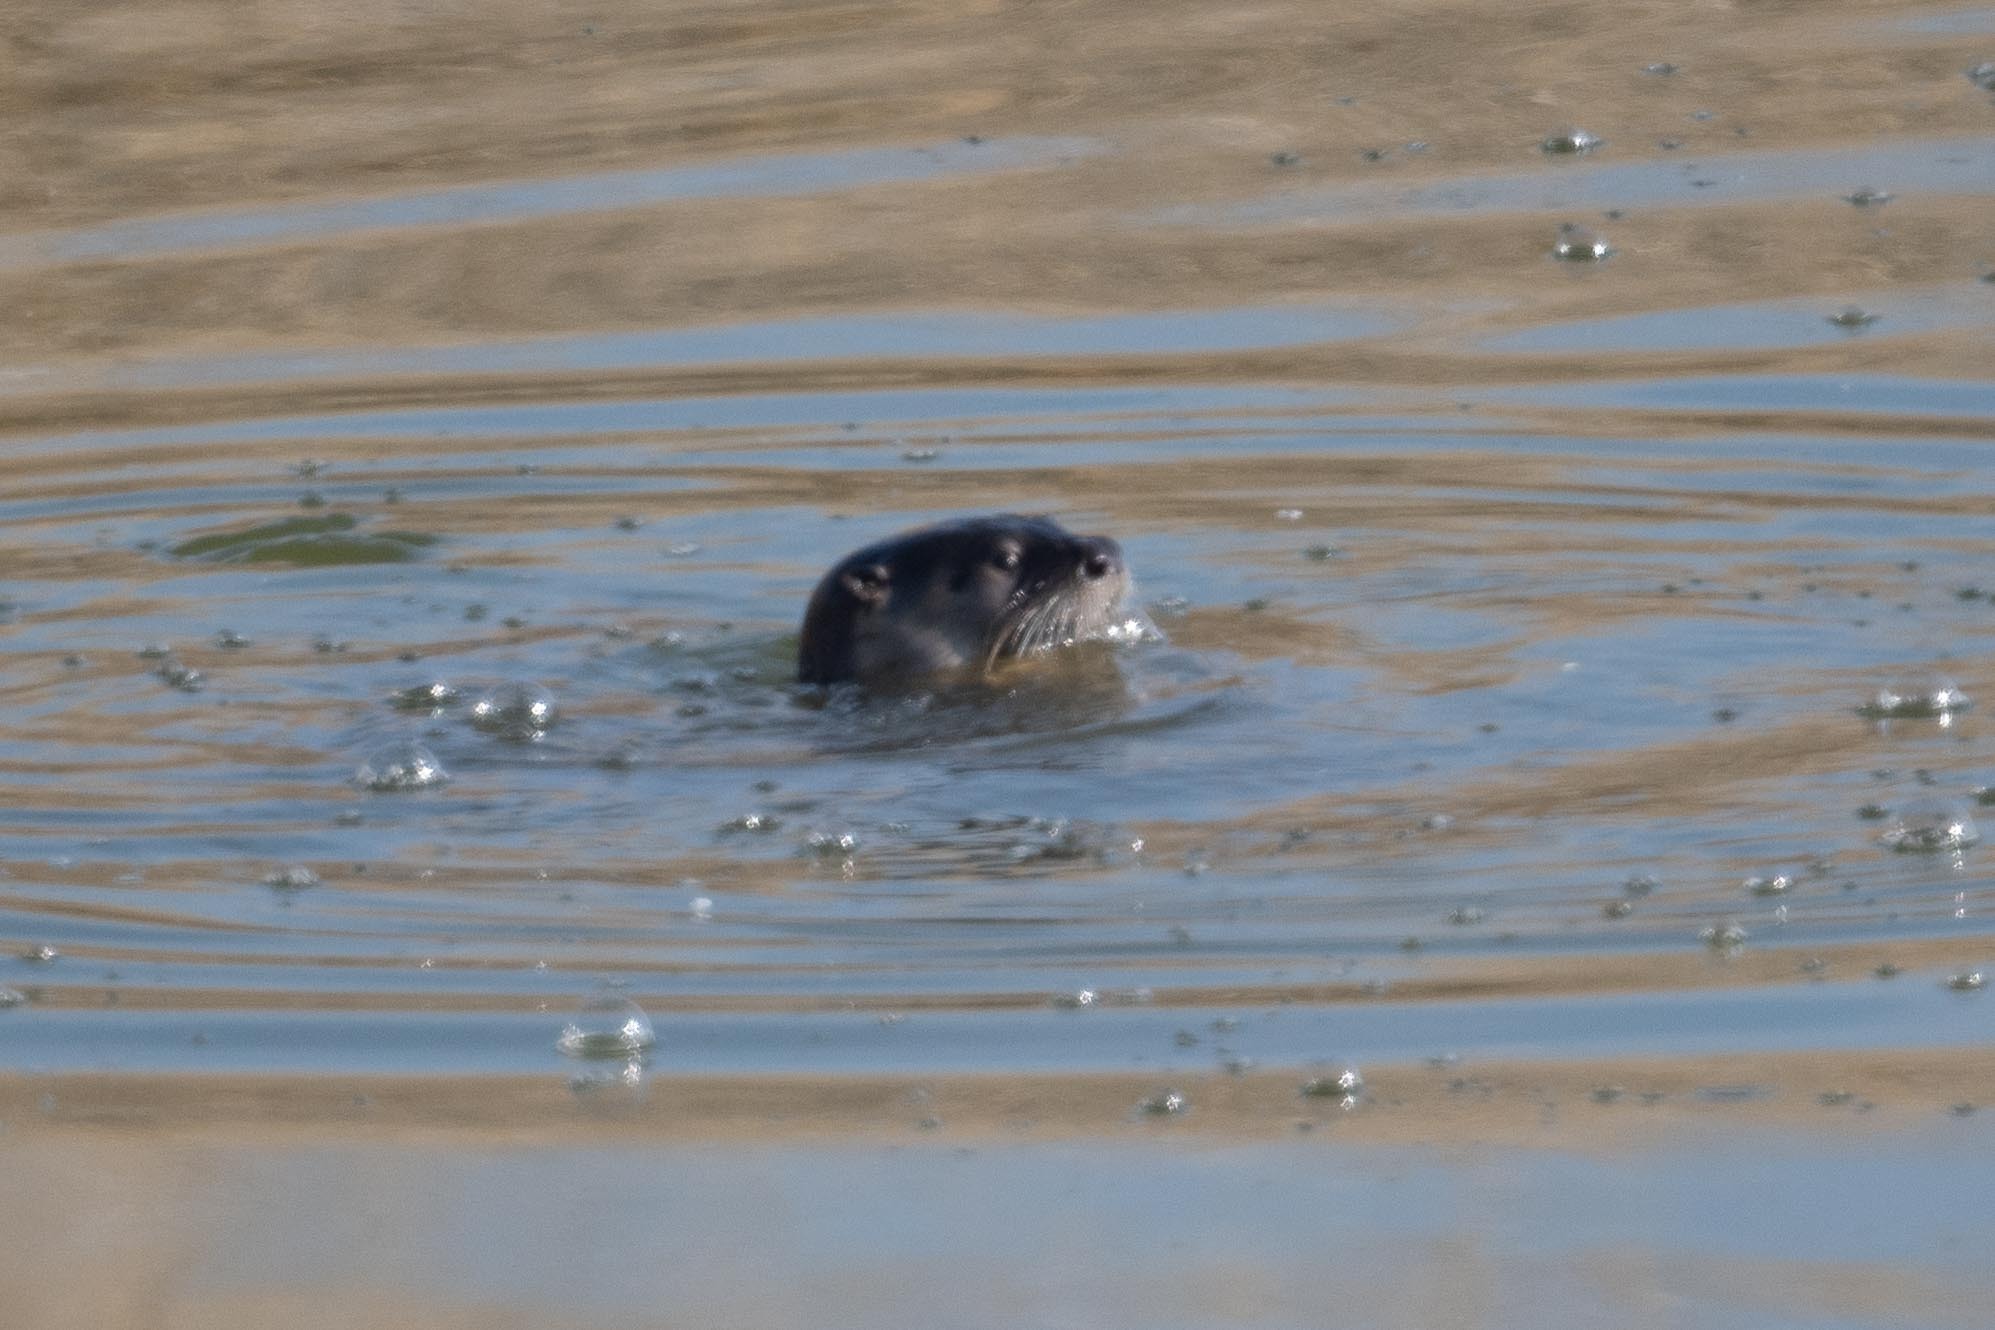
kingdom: Animalia
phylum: Chordata
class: Mammalia
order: Carnivora
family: Mustelidae
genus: Lontra
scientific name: Lontra canadensis
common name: North american river otter
